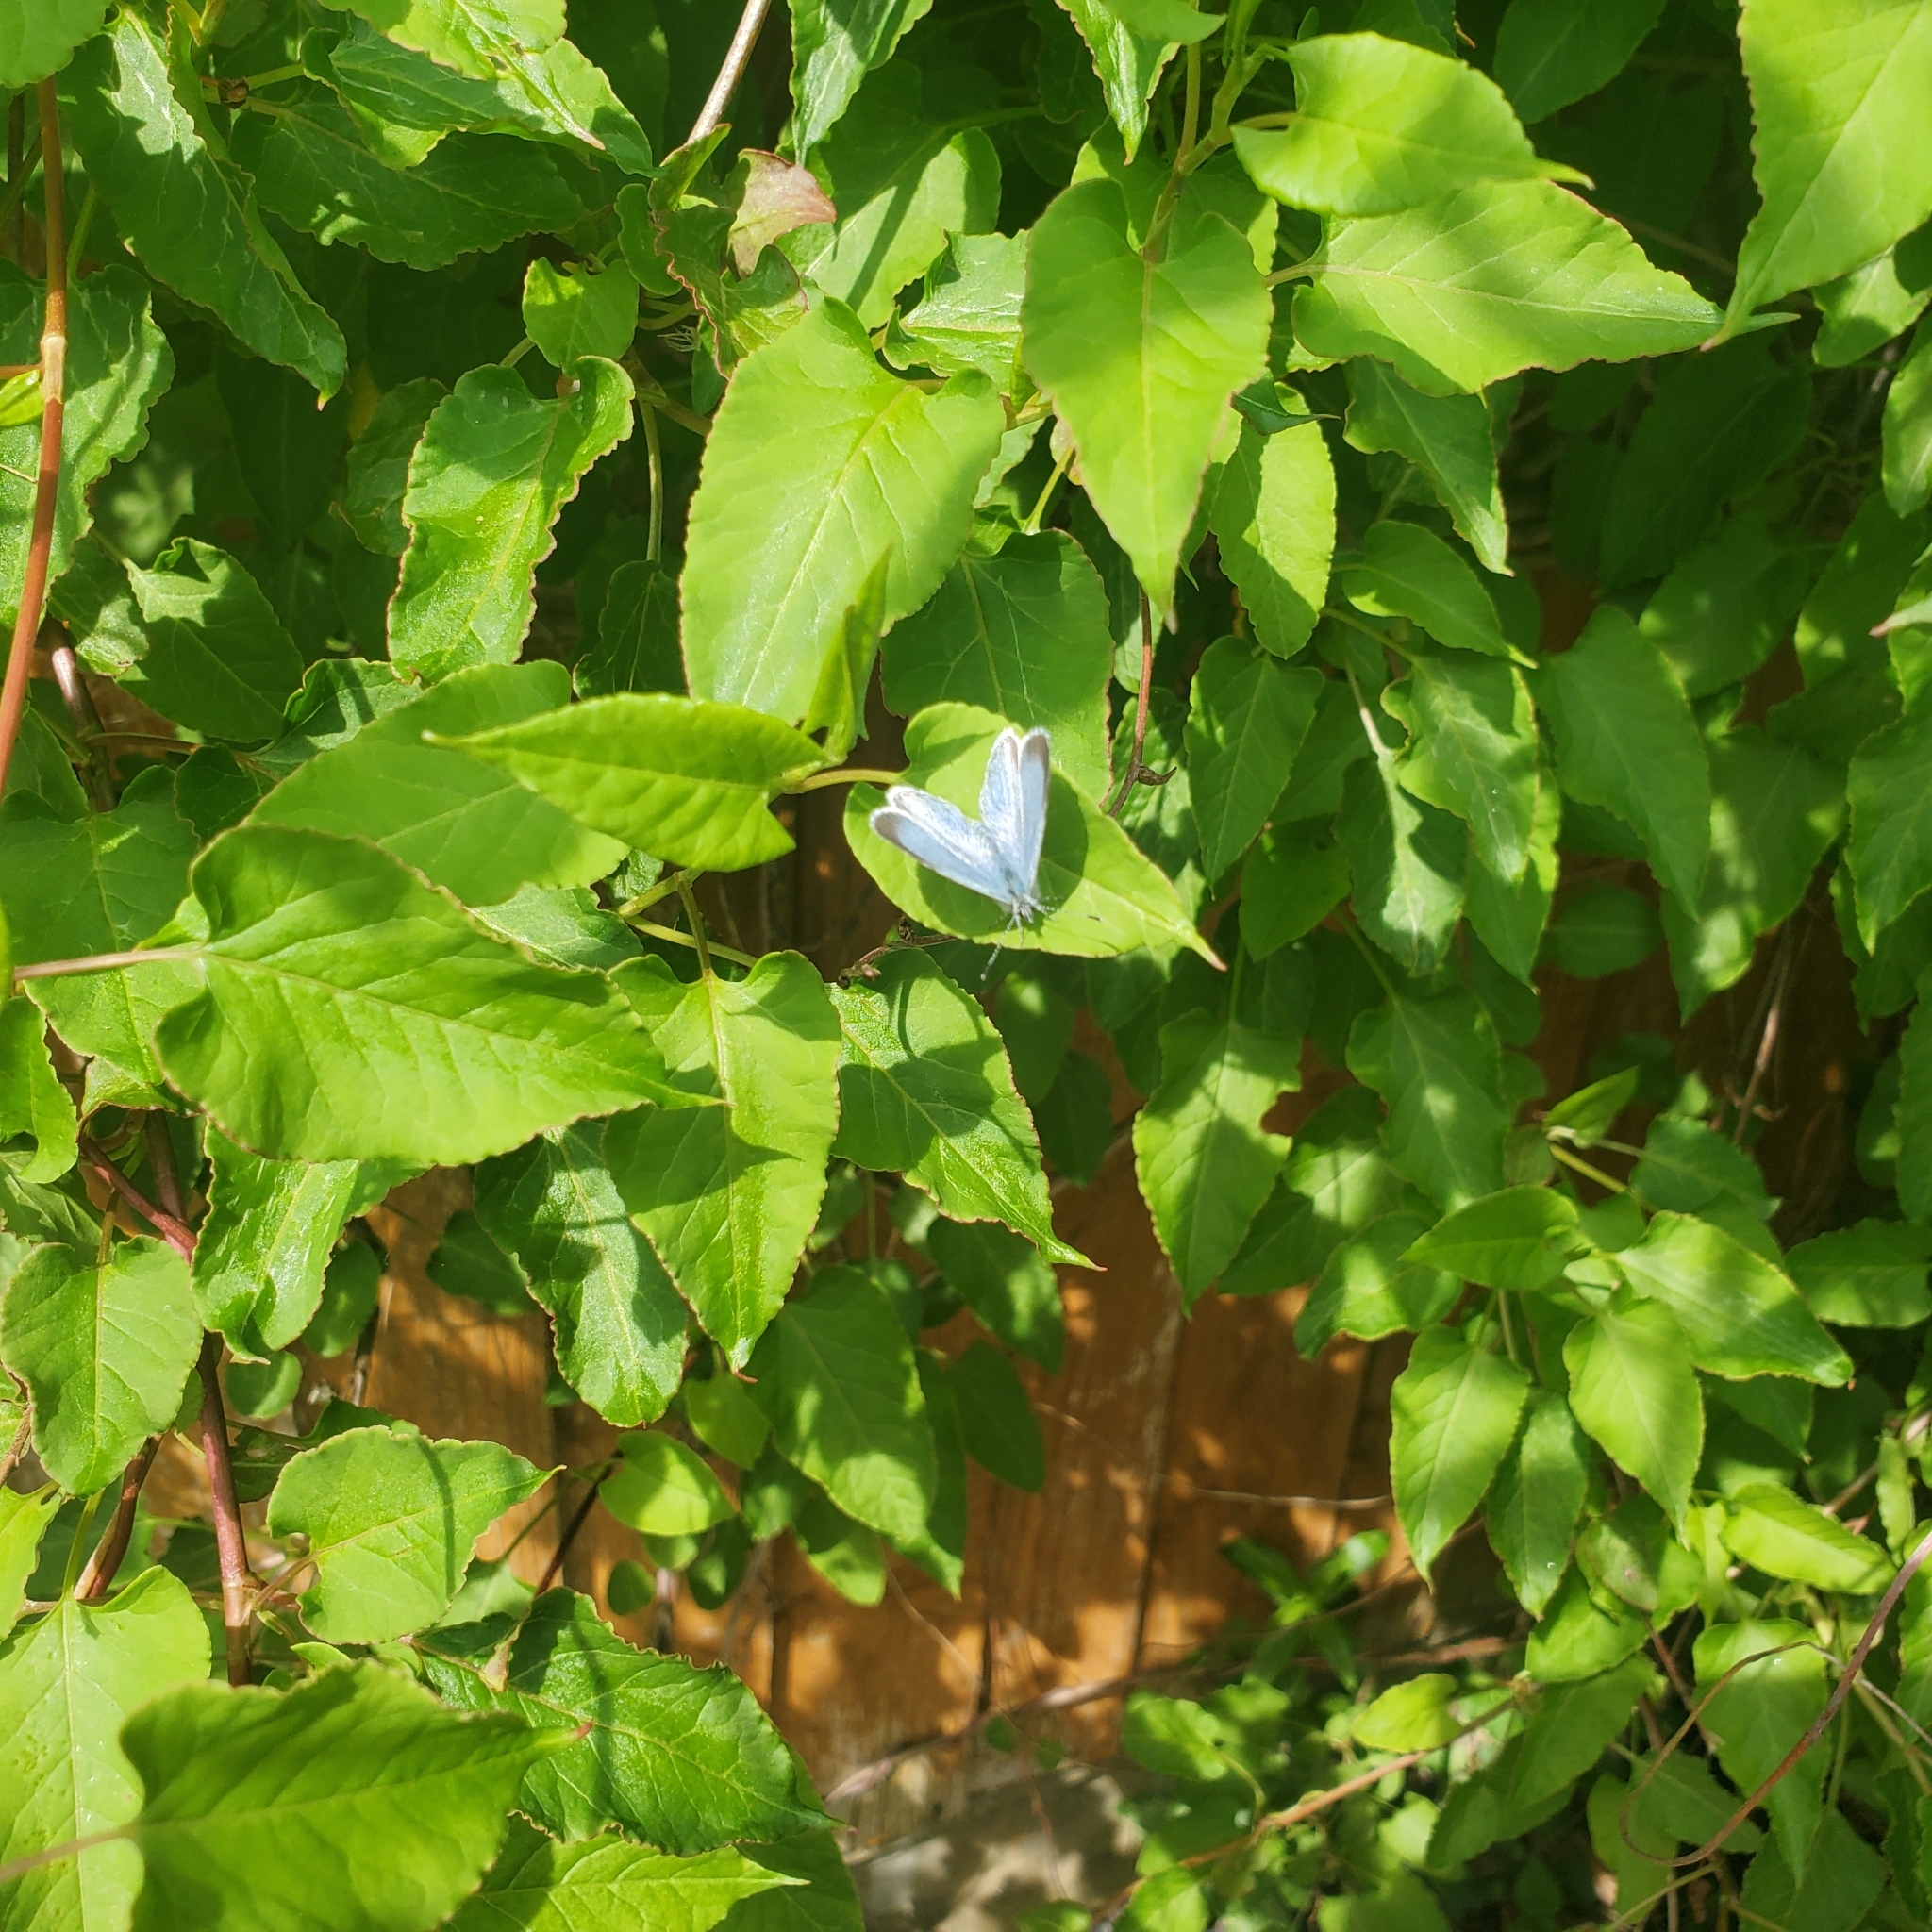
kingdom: Animalia
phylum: Arthropoda
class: Insecta
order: Lepidoptera
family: Lycaenidae
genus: Celastrina
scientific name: Celastrina argiolus
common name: Holly blue
